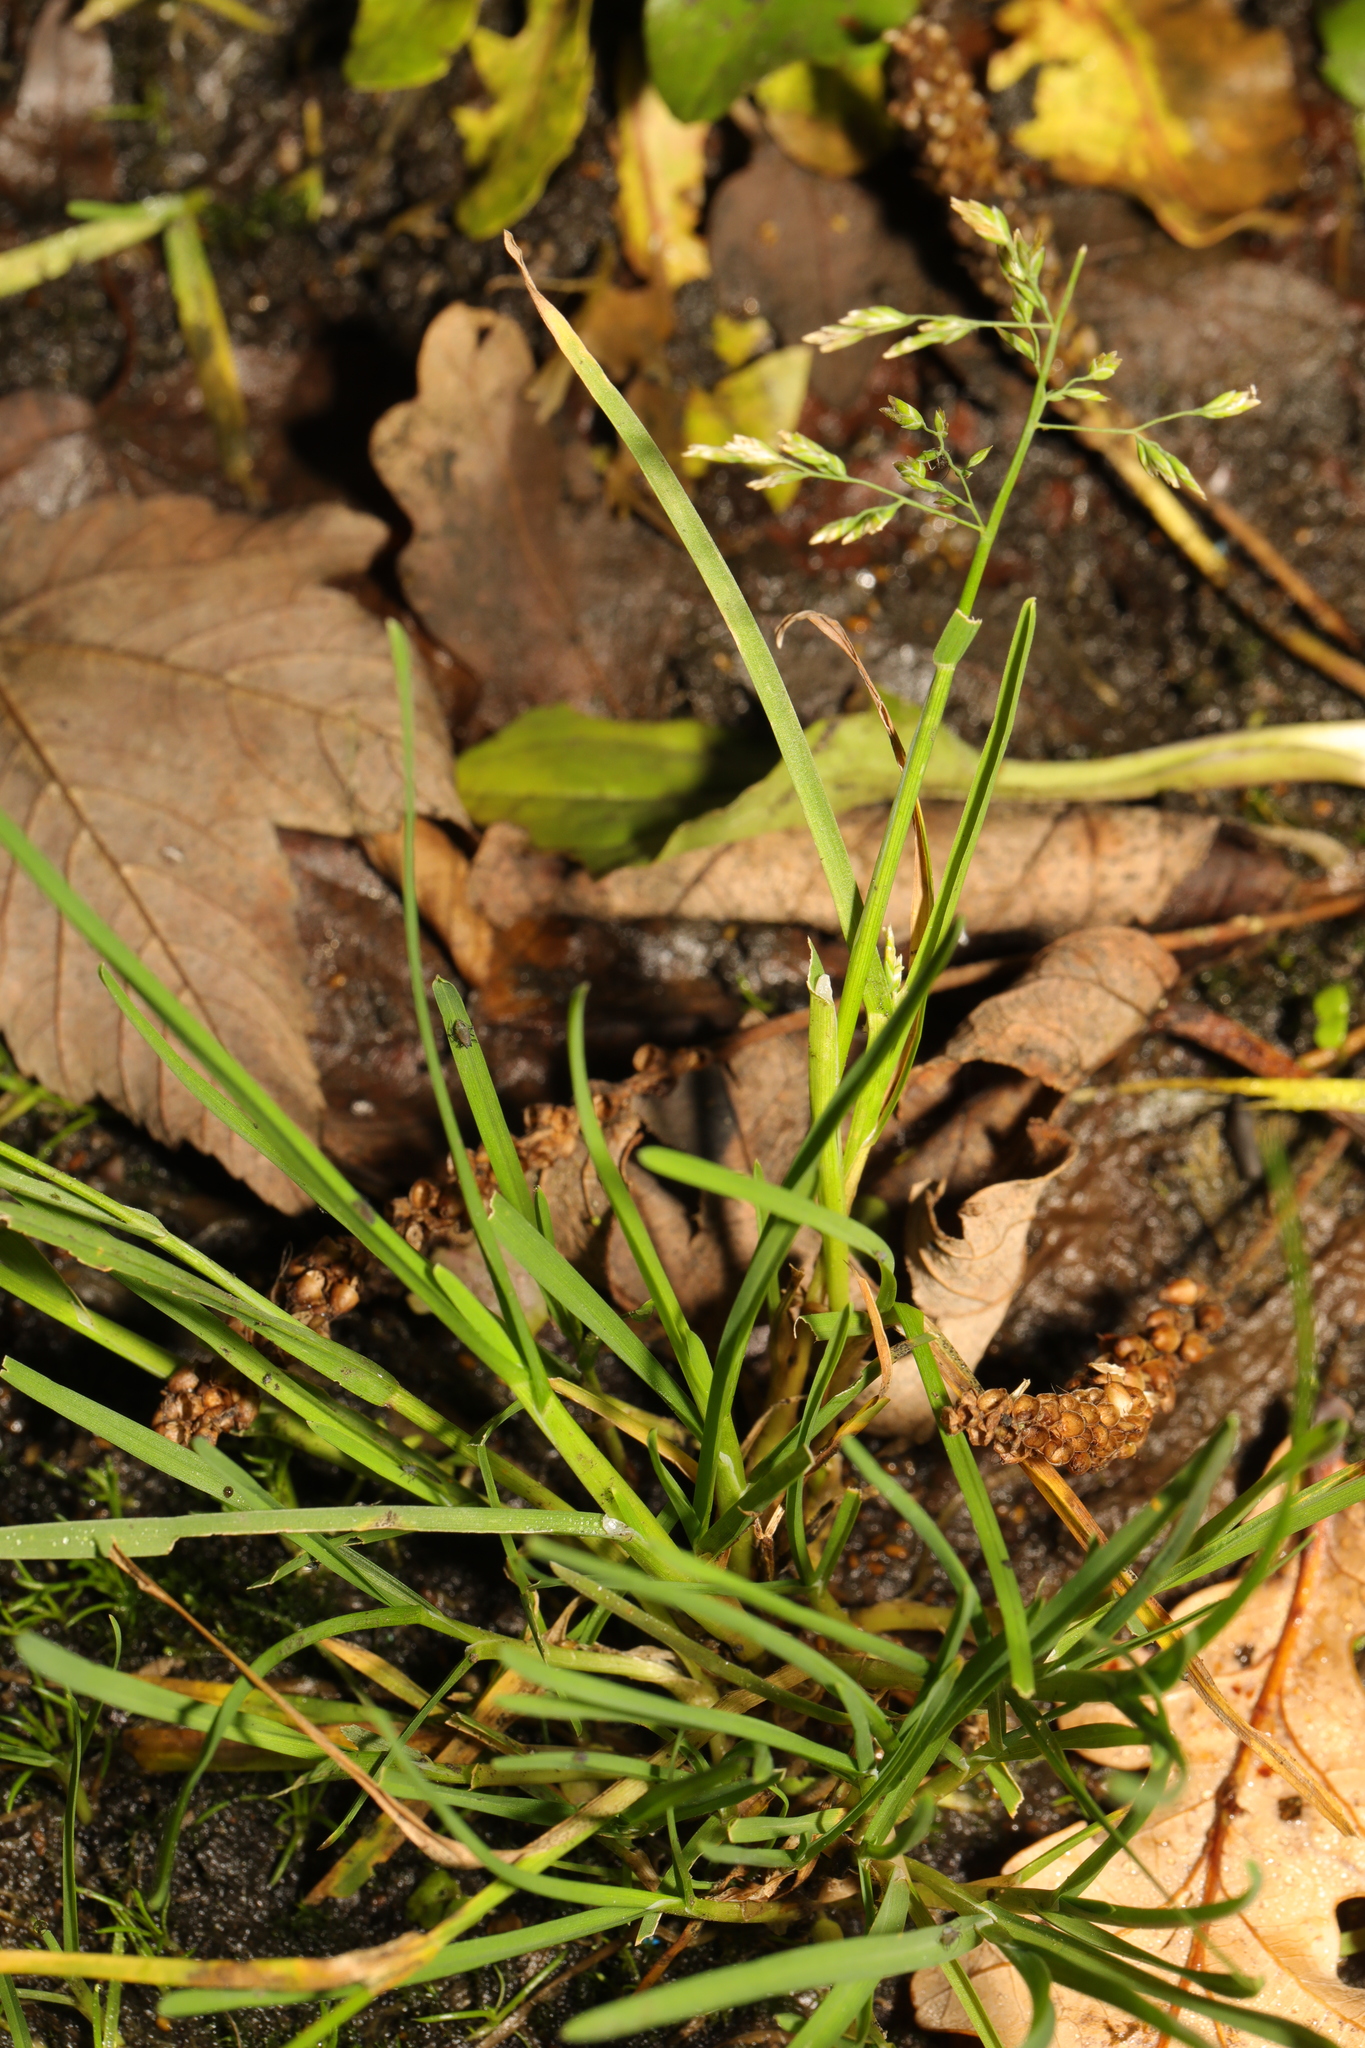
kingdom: Plantae
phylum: Tracheophyta
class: Liliopsida
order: Poales
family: Poaceae
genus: Poa
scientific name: Poa annua
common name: Annual bluegrass
